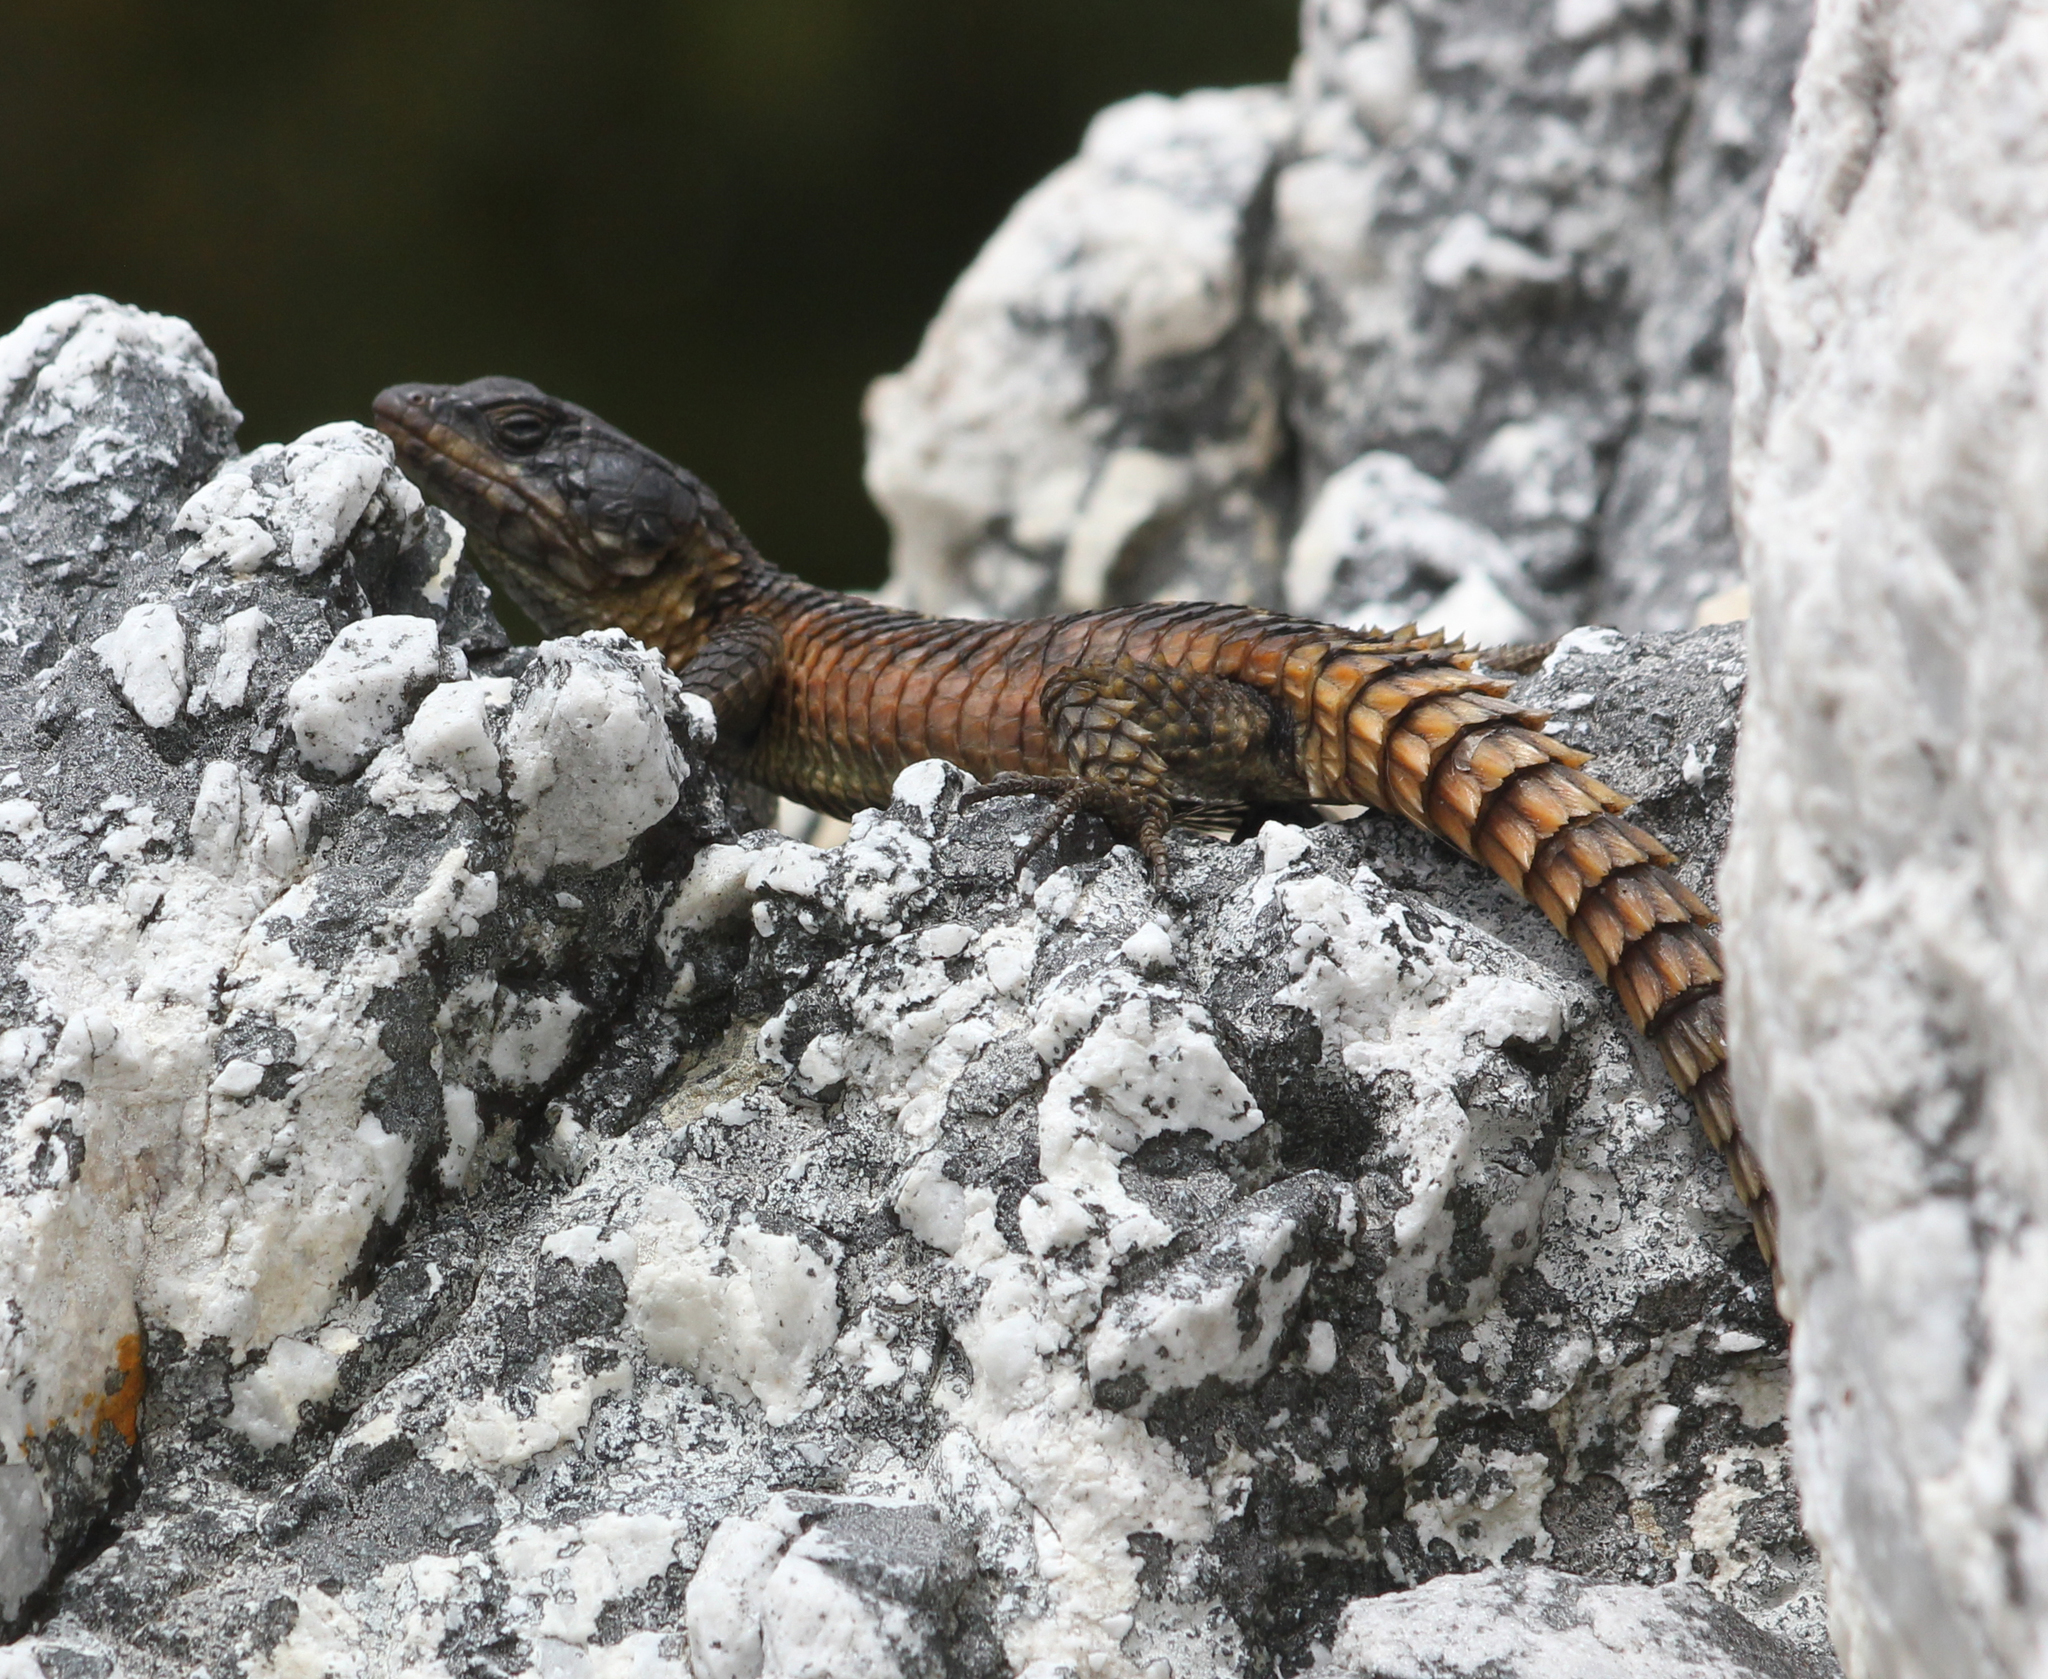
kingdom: Animalia
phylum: Chordata
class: Squamata
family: Cordylidae
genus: Cordylus
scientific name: Cordylus cordylus
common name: Cape girdled lizard
